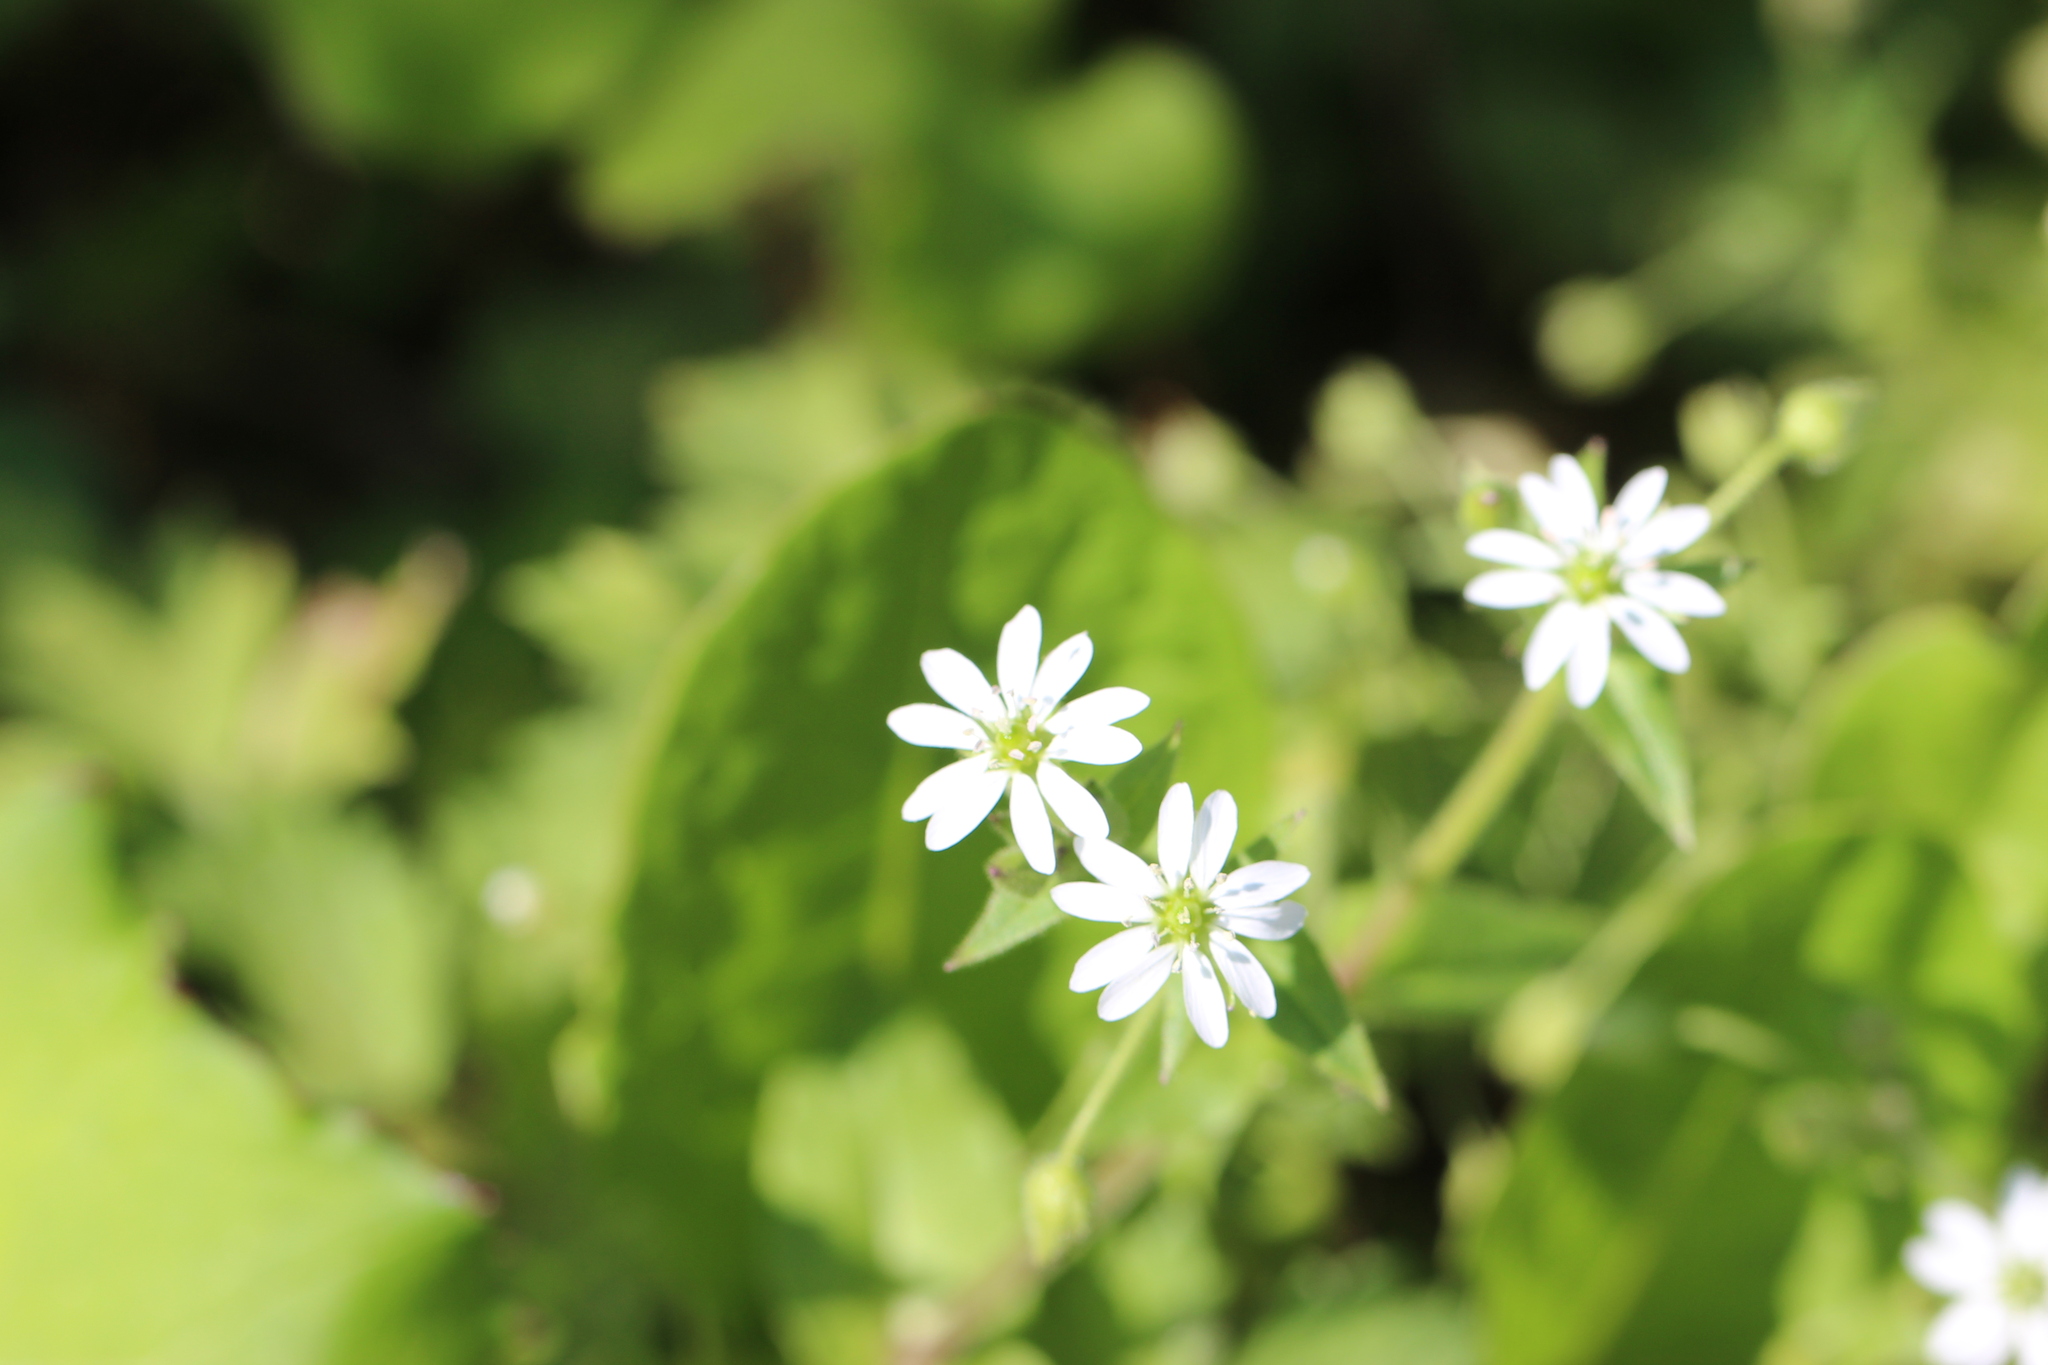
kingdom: Plantae
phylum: Tracheophyta
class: Magnoliopsida
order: Caryophyllales
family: Caryophyllaceae
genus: Stellaria
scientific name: Stellaria aquatica
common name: Water chickweed
